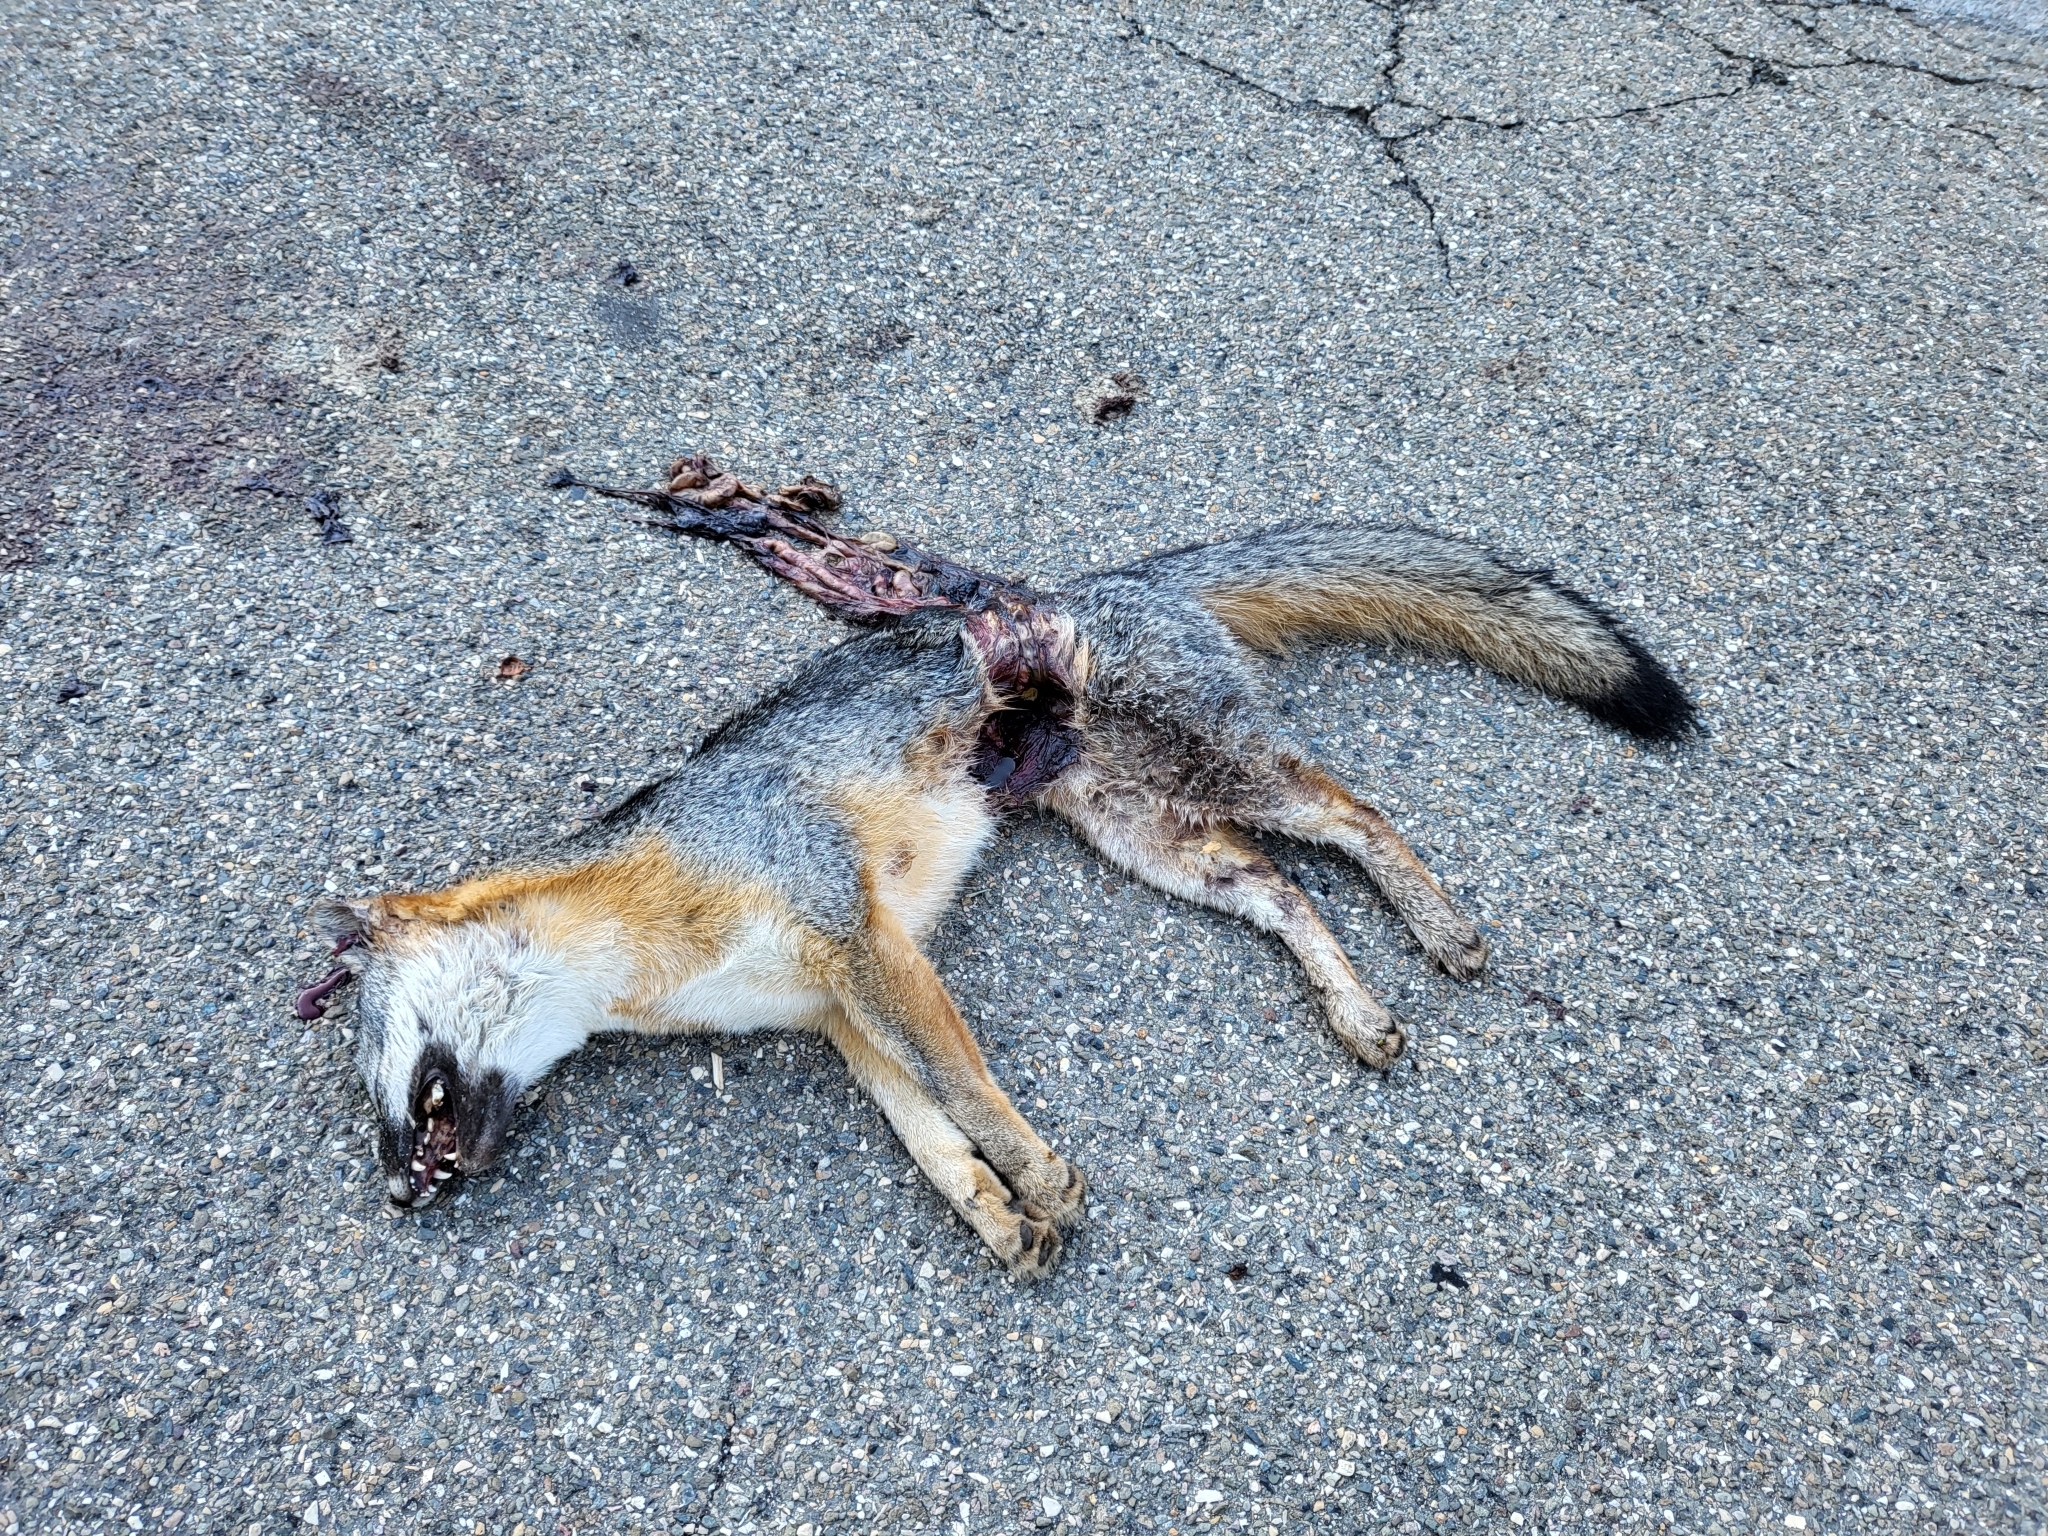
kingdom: Animalia
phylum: Chordata
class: Mammalia
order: Carnivora
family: Canidae
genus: Urocyon
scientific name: Urocyon cinereoargenteus
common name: Gray fox
